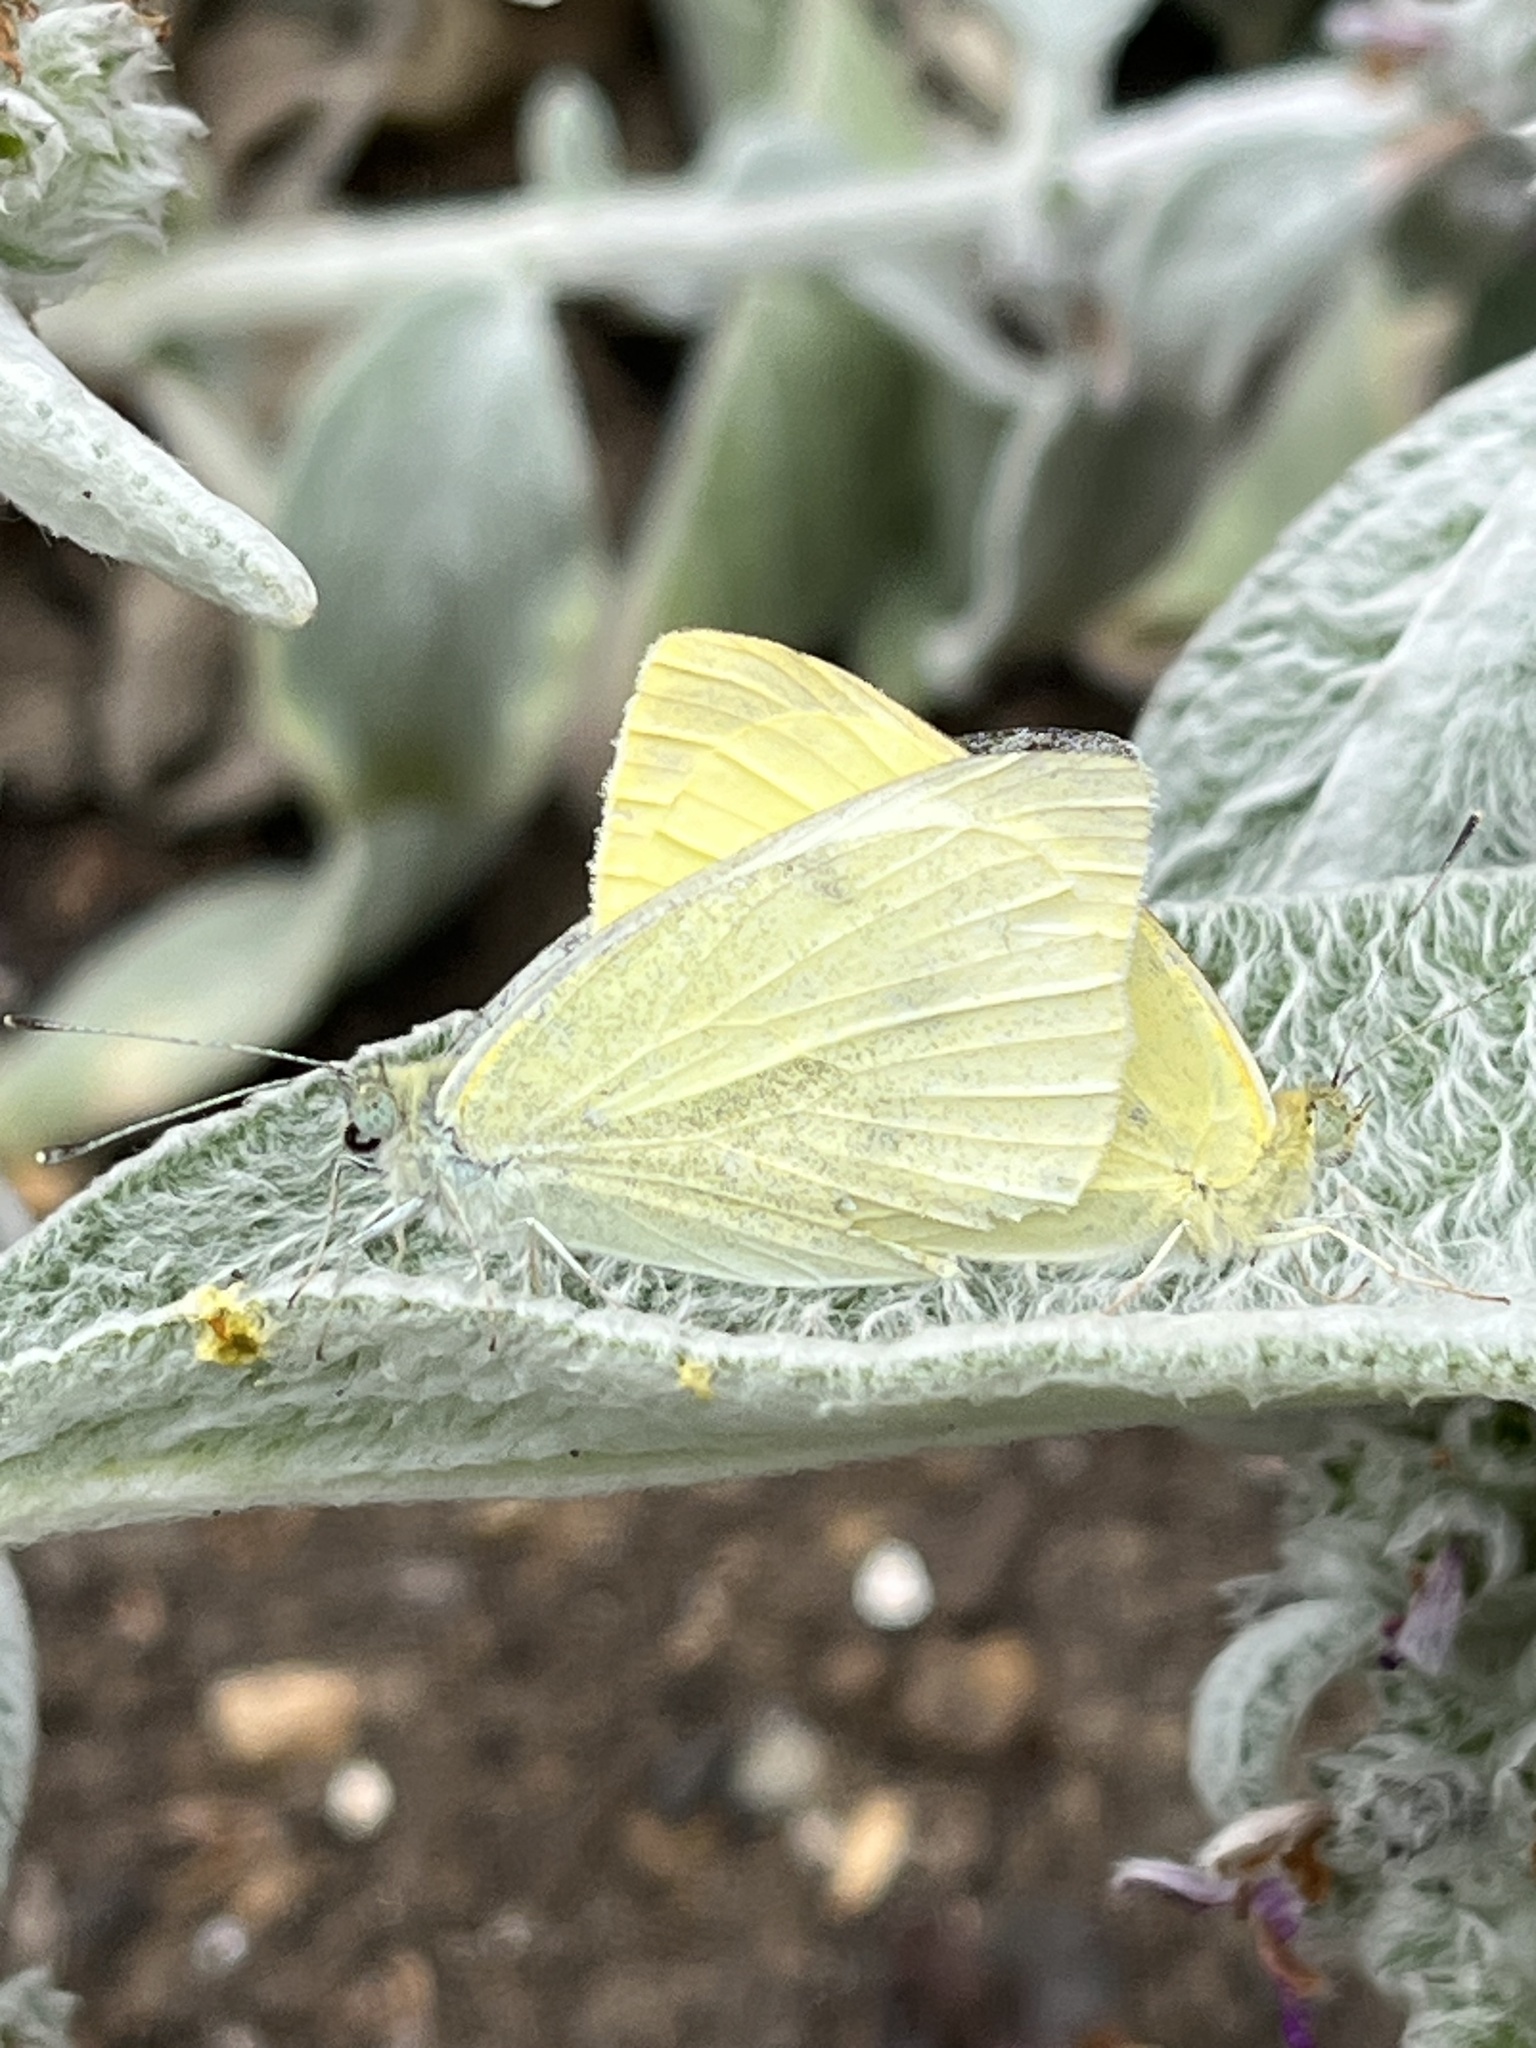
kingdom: Animalia
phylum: Arthropoda
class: Insecta
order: Lepidoptera
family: Pieridae
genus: Pieris
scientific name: Pieris rapae
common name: Small white
